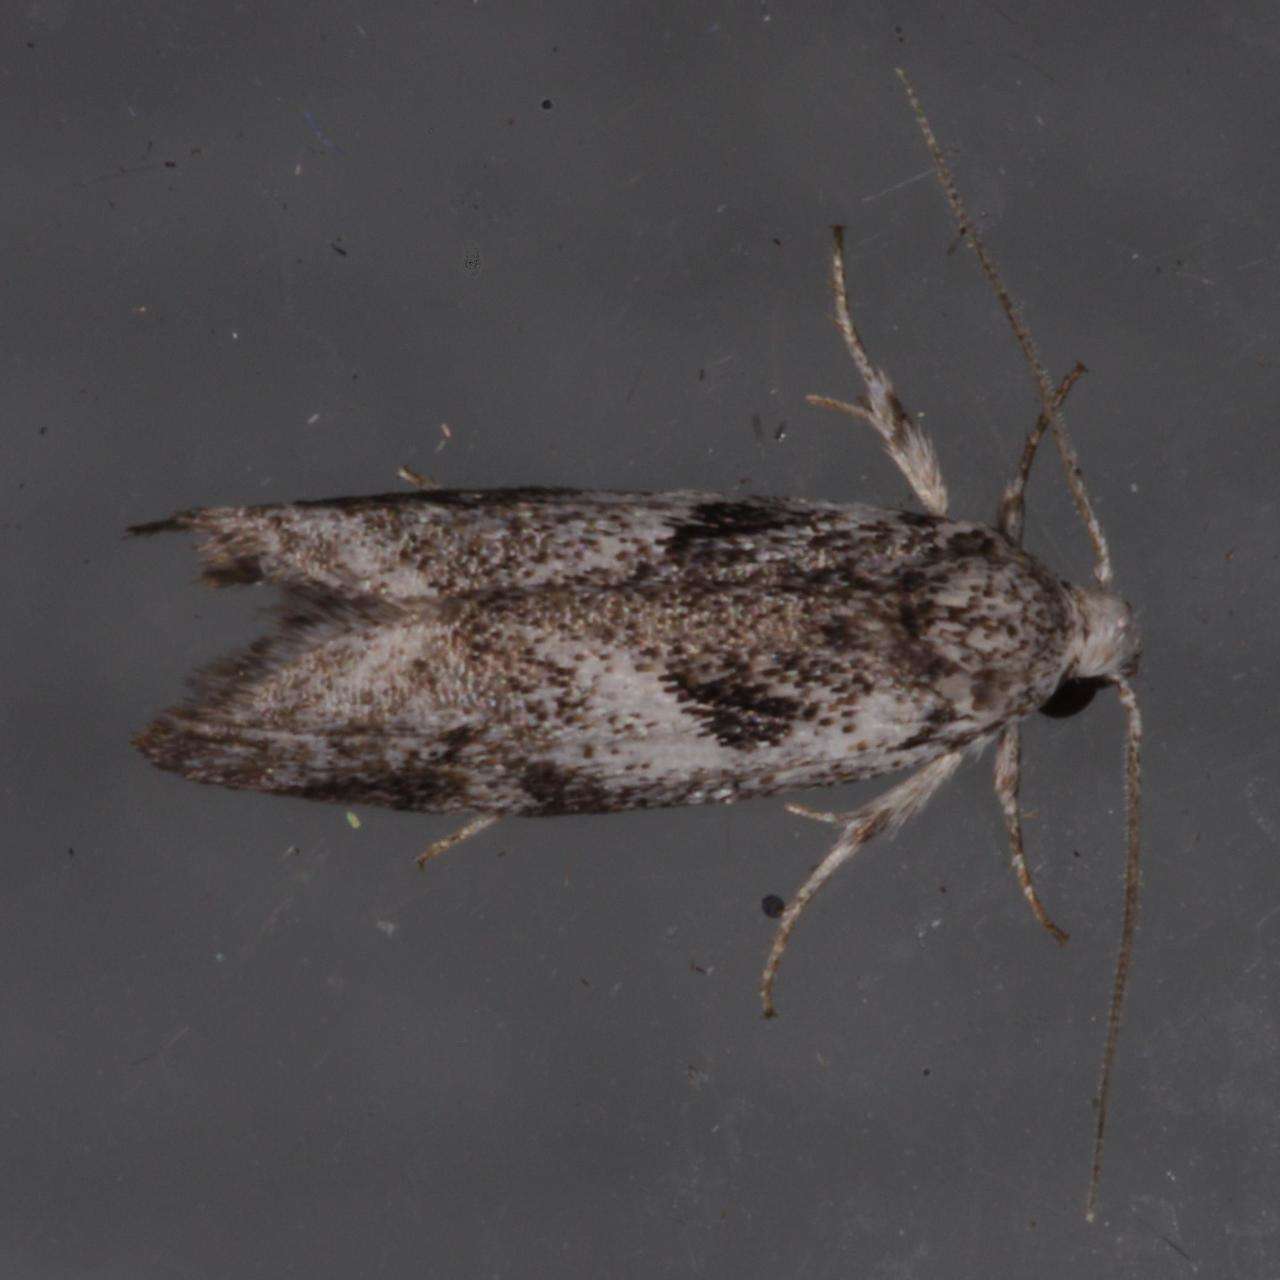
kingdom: Animalia
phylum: Arthropoda
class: Insecta
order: Lepidoptera
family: Xyloryctidae
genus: Lichenaula
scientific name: Lichenaula choriodes
